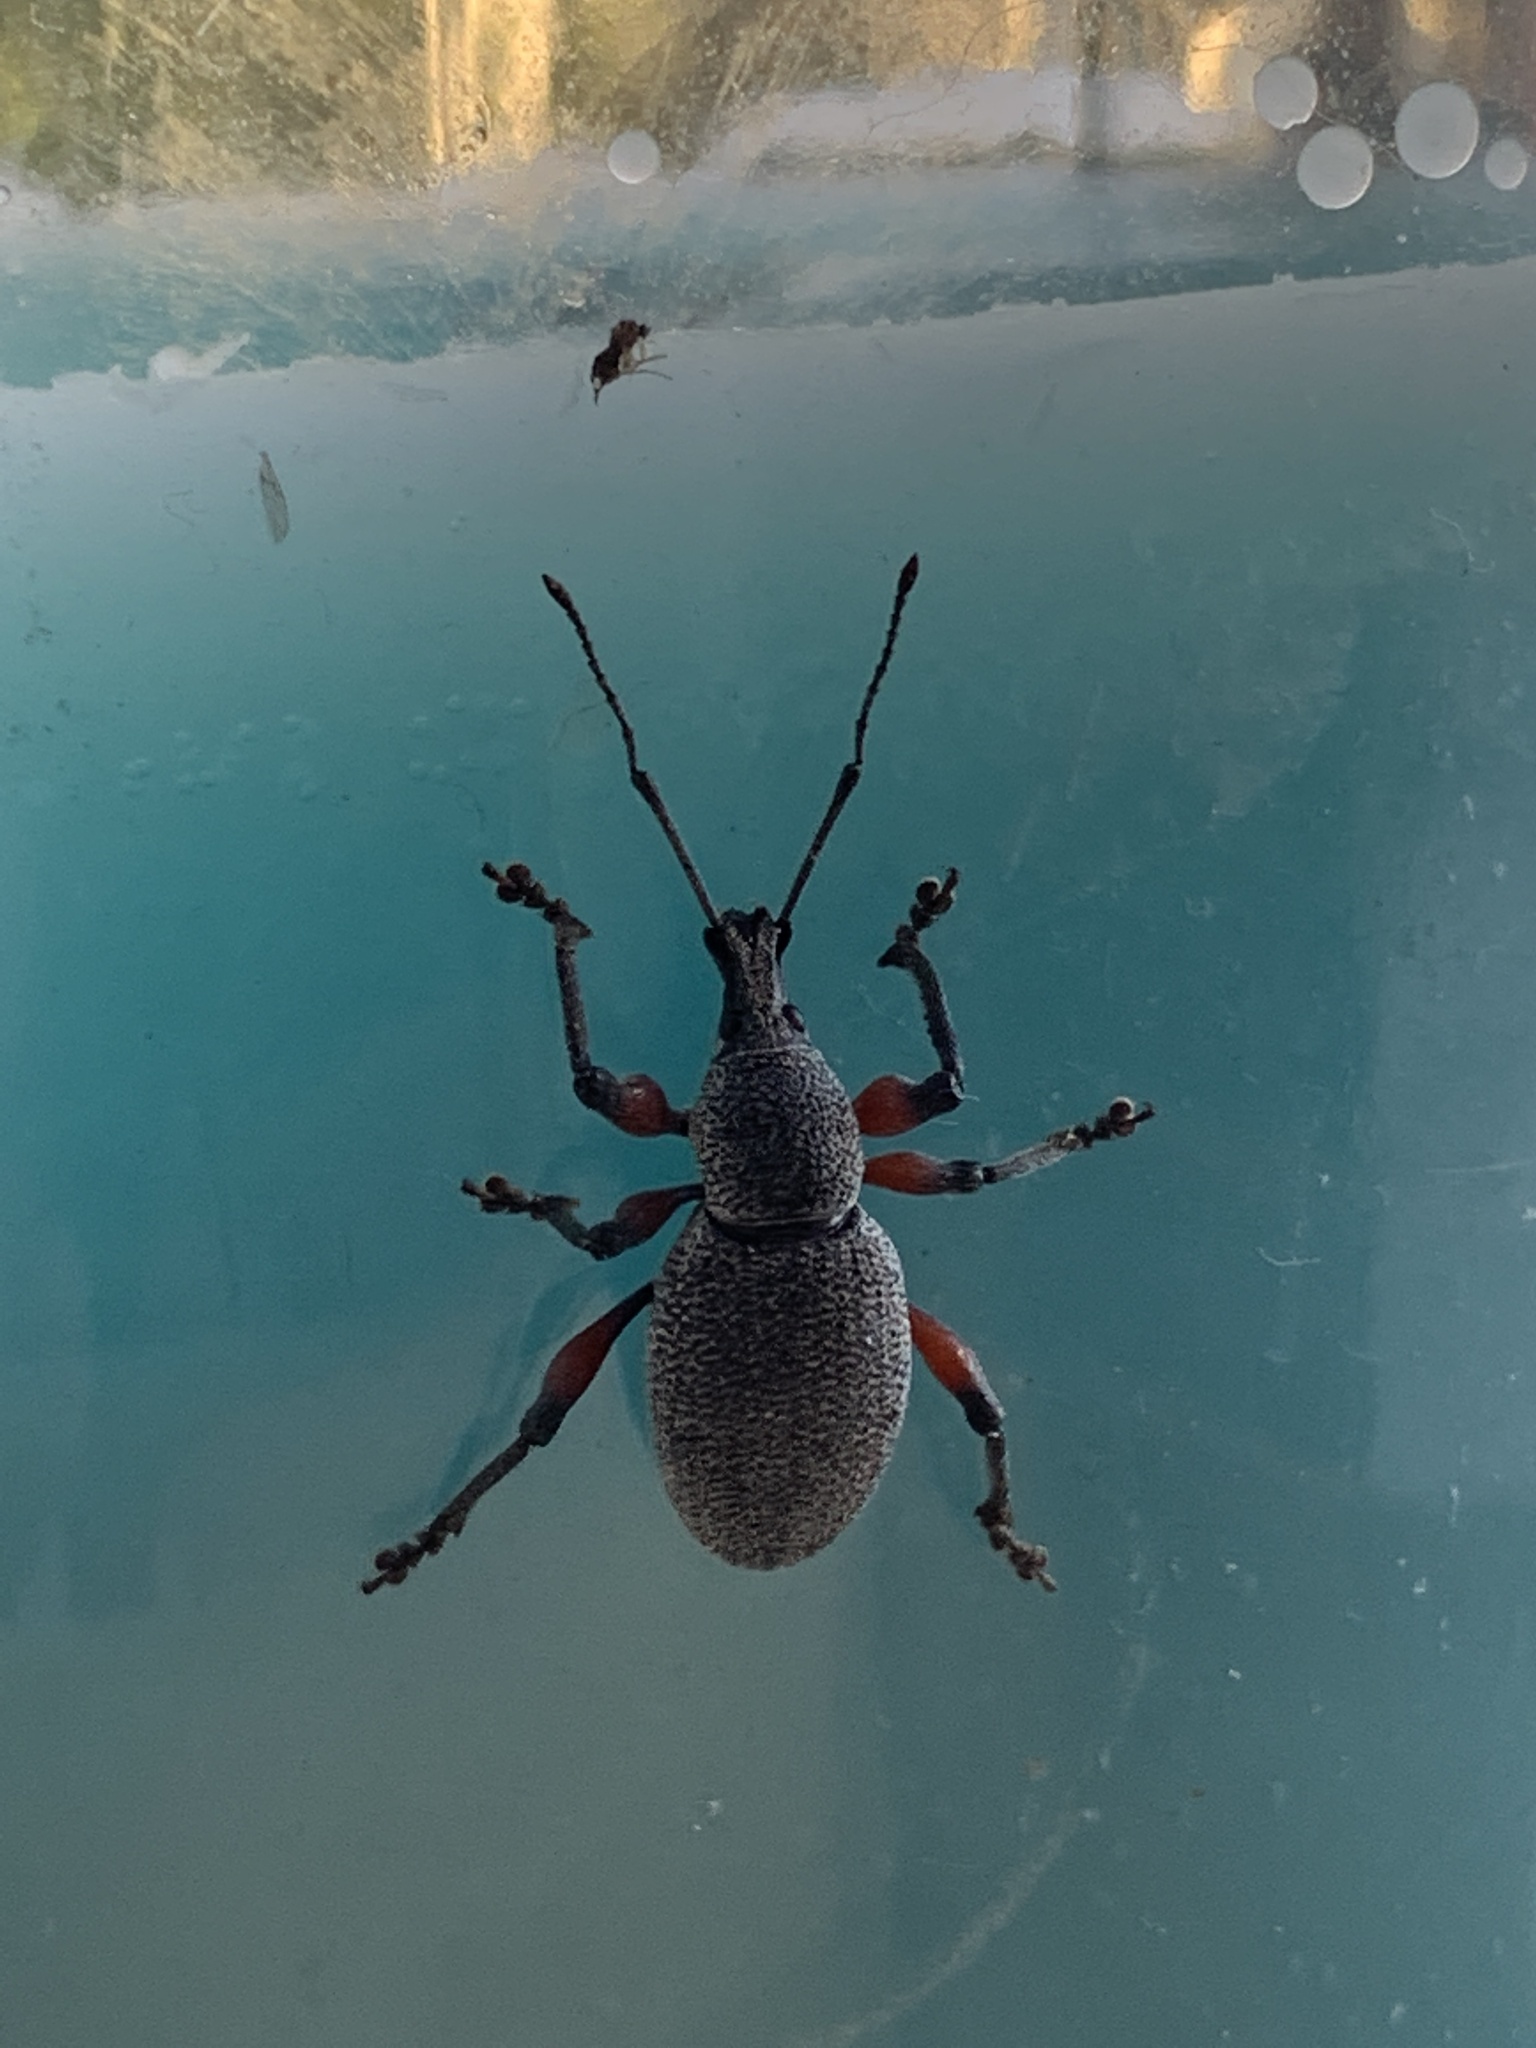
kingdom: Animalia
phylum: Arthropoda
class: Insecta
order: Coleoptera
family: Curculionidae
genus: Otiorhynchus
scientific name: Otiorhynchus cardiniger
